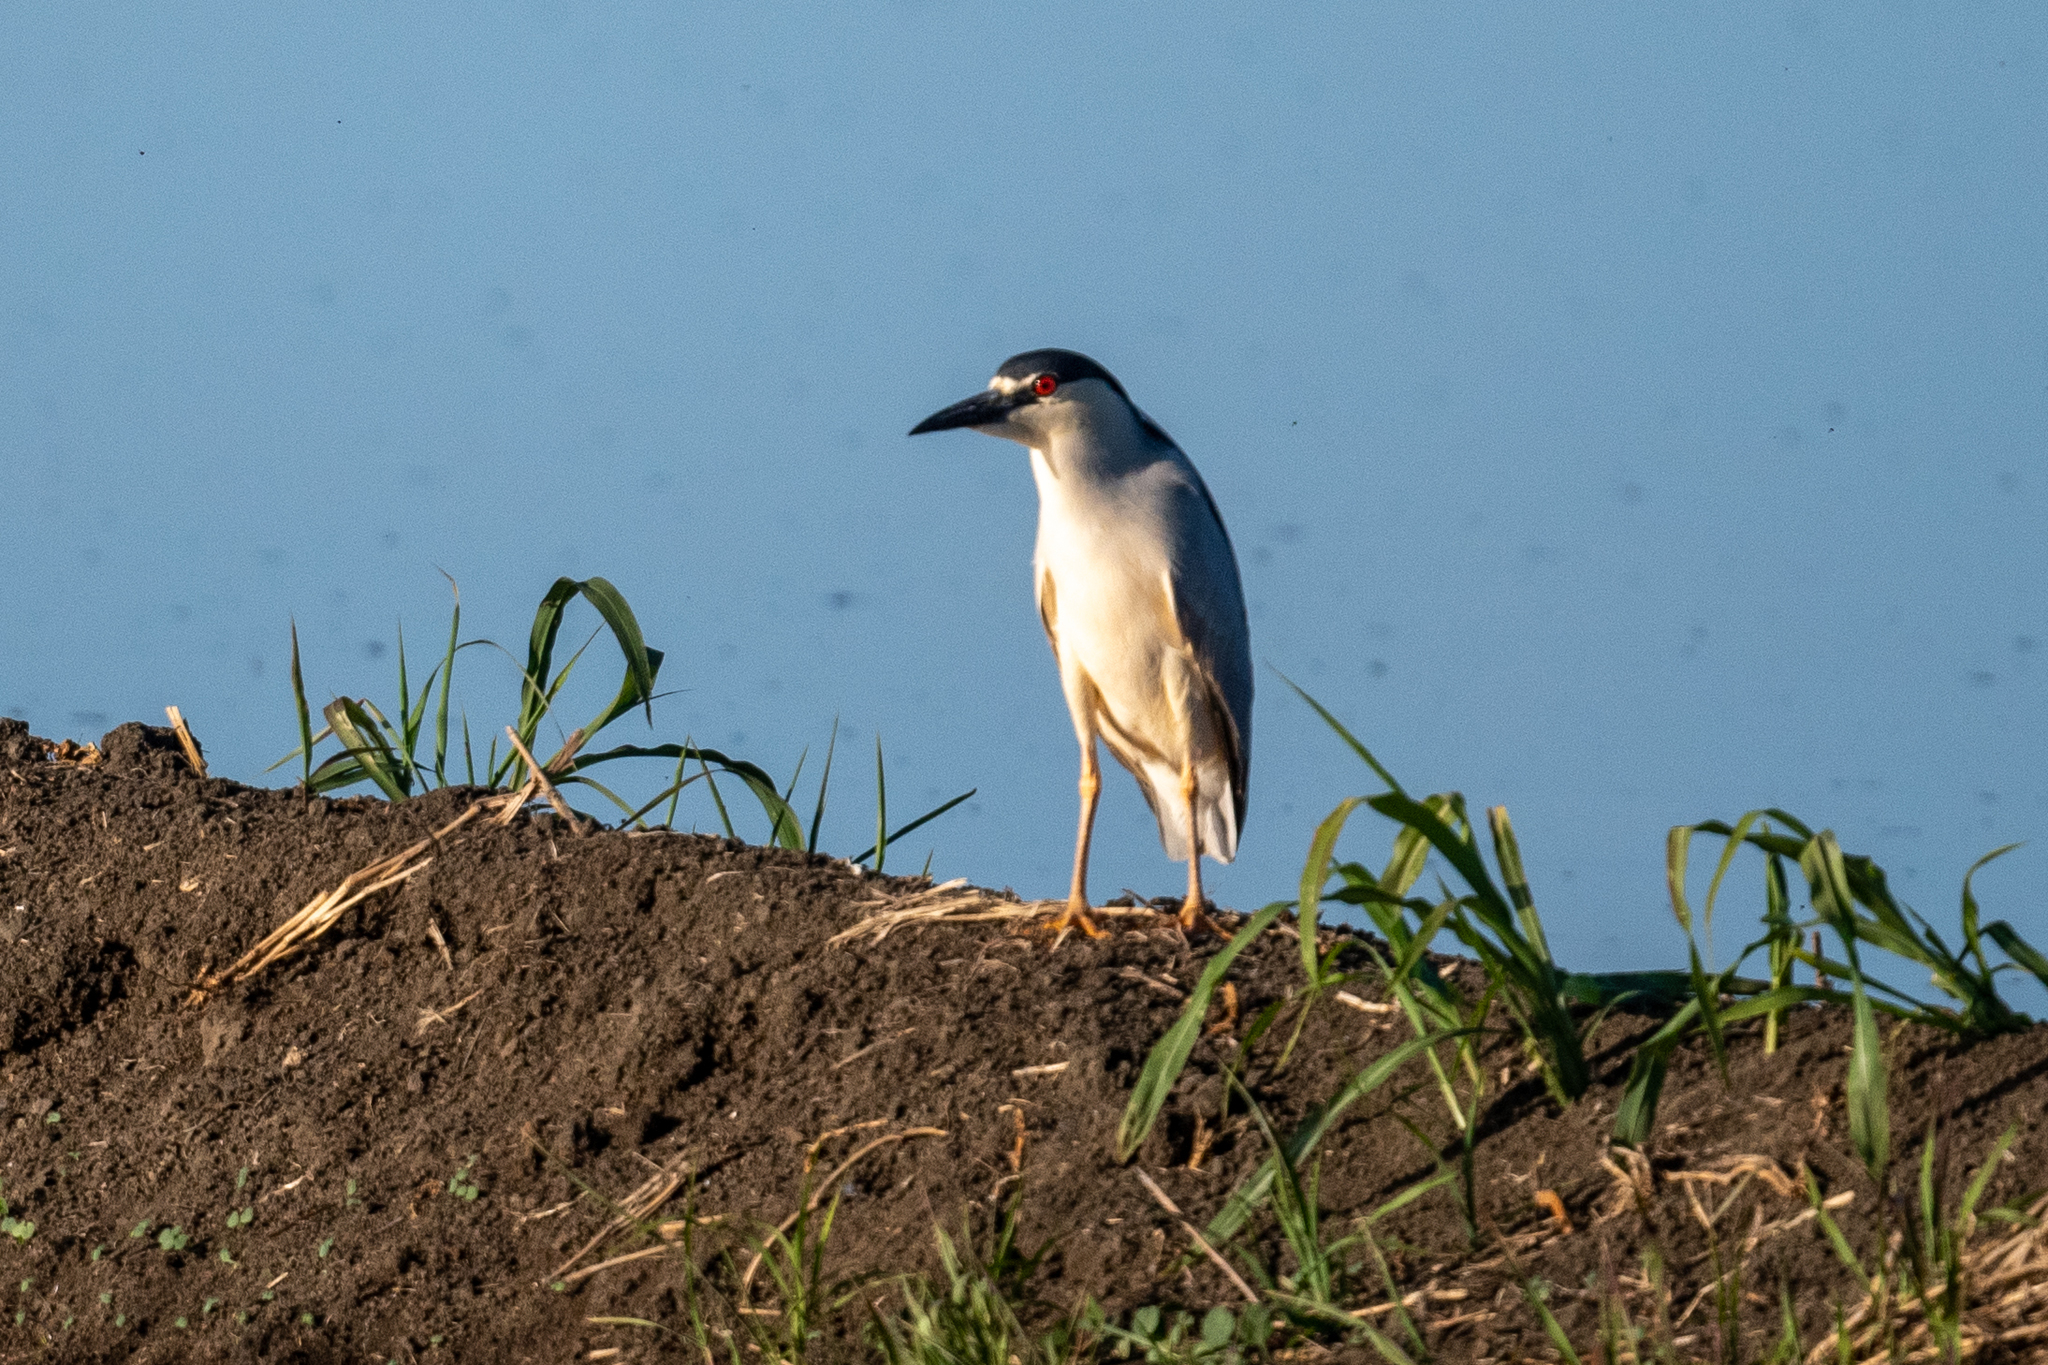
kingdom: Animalia
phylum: Chordata
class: Aves
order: Pelecaniformes
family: Ardeidae
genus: Nycticorax
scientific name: Nycticorax nycticorax
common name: Black-crowned night heron
